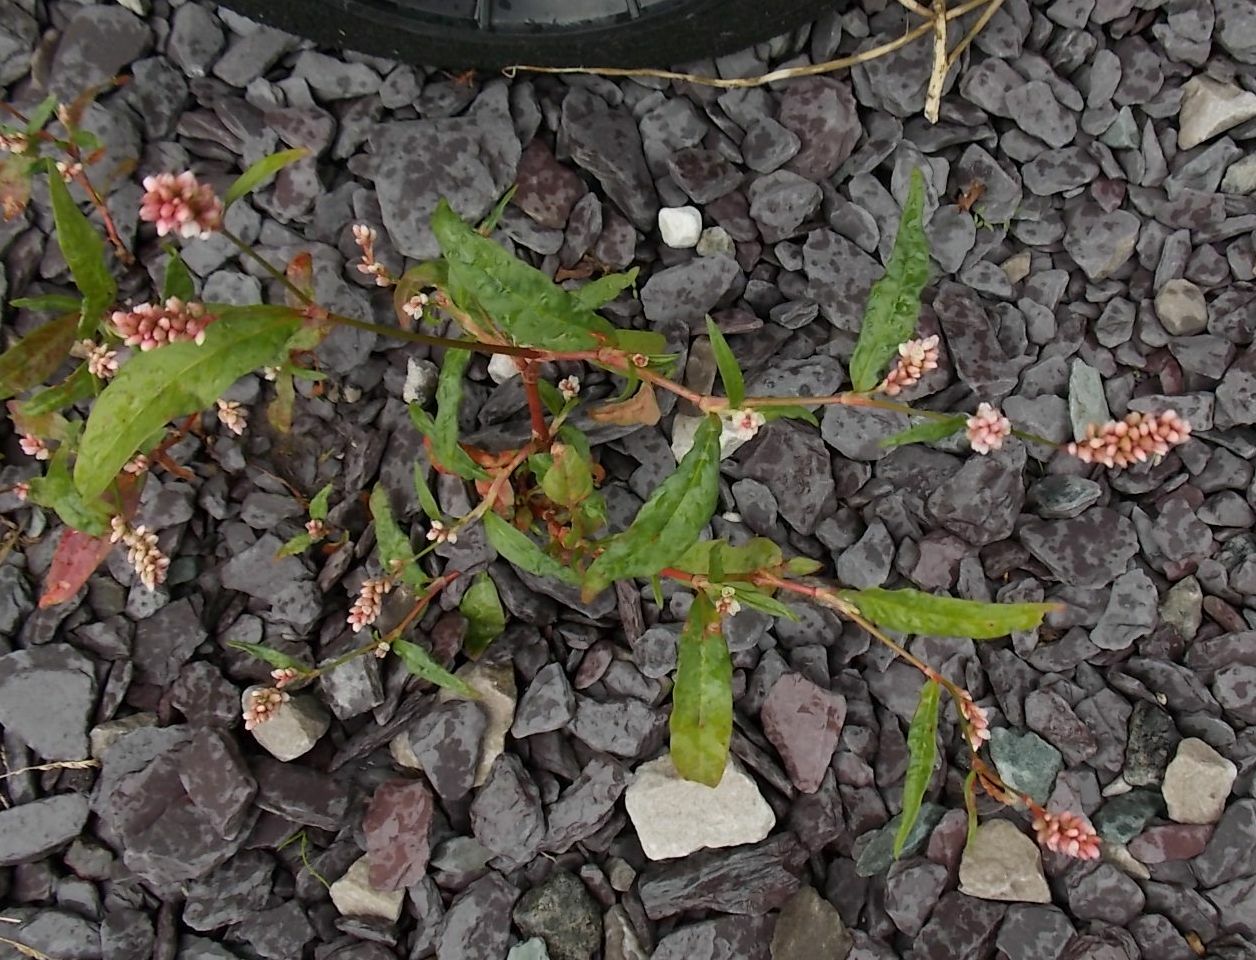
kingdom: Plantae
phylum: Tracheophyta
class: Magnoliopsida
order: Caryophyllales
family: Polygonaceae
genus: Persicaria
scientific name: Persicaria maculosa
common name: Redshank
